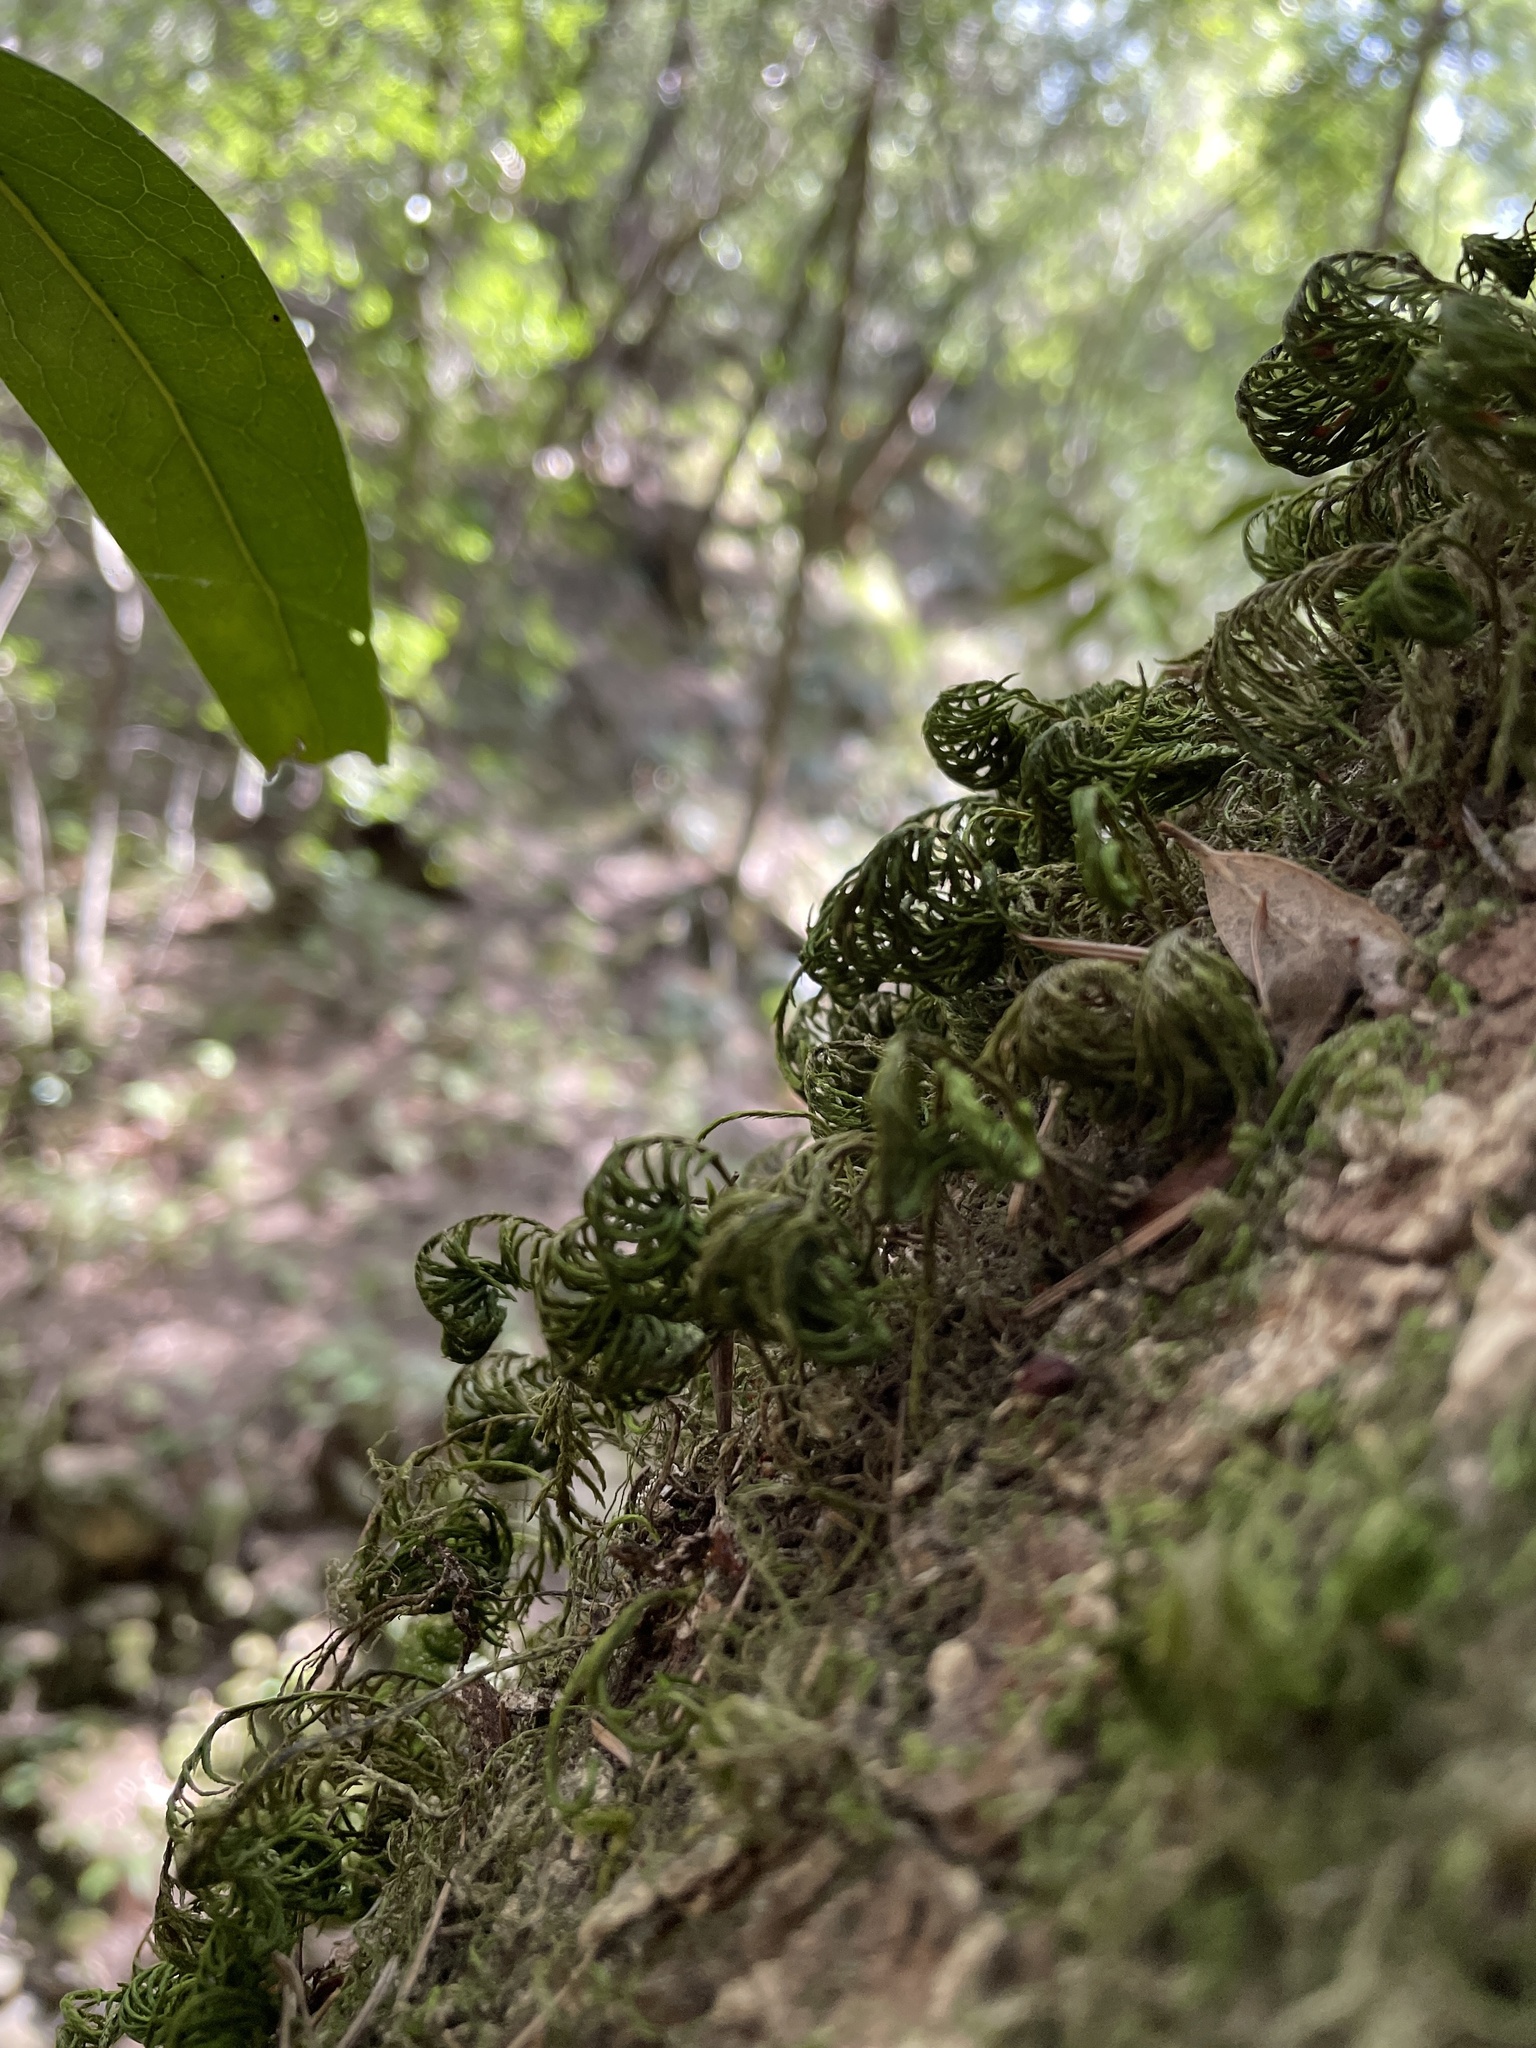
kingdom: Plantae
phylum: Bryophyta
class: Bryopsida
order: Hypnales
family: Cryphaeaceae
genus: Dendroalsia
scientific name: Dendroalsia abietina
